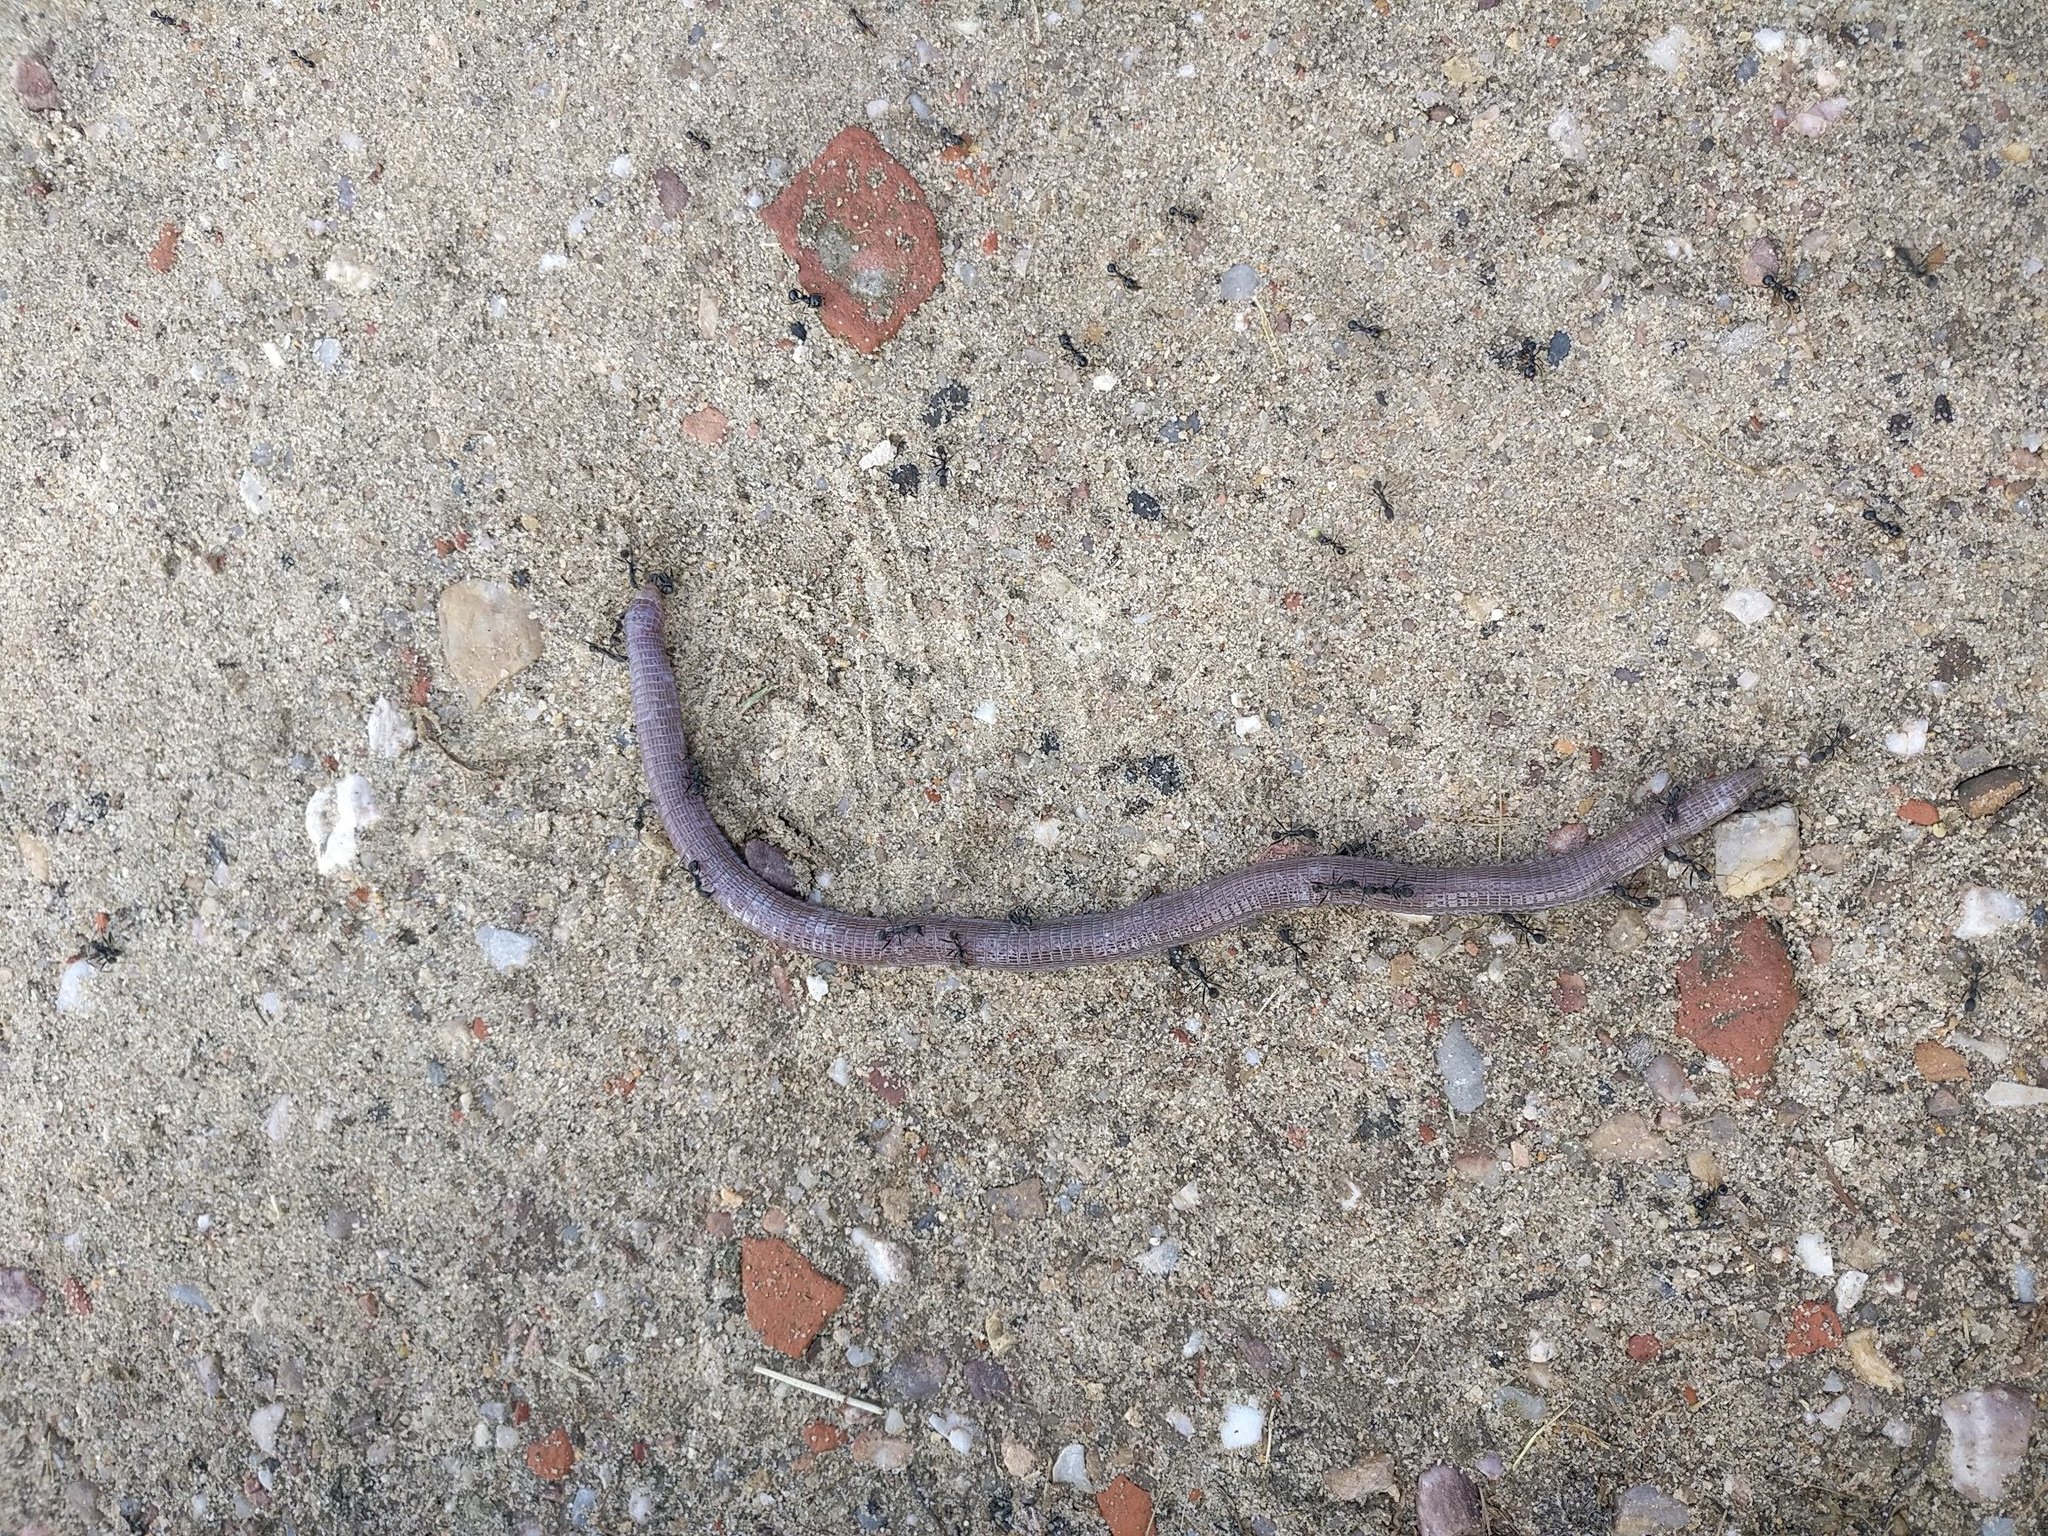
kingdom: Animalia
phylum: Chordata
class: Squamata
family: Blanidae
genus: Blanus
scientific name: Blanus cinereus
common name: Mediterranean worm lizard
